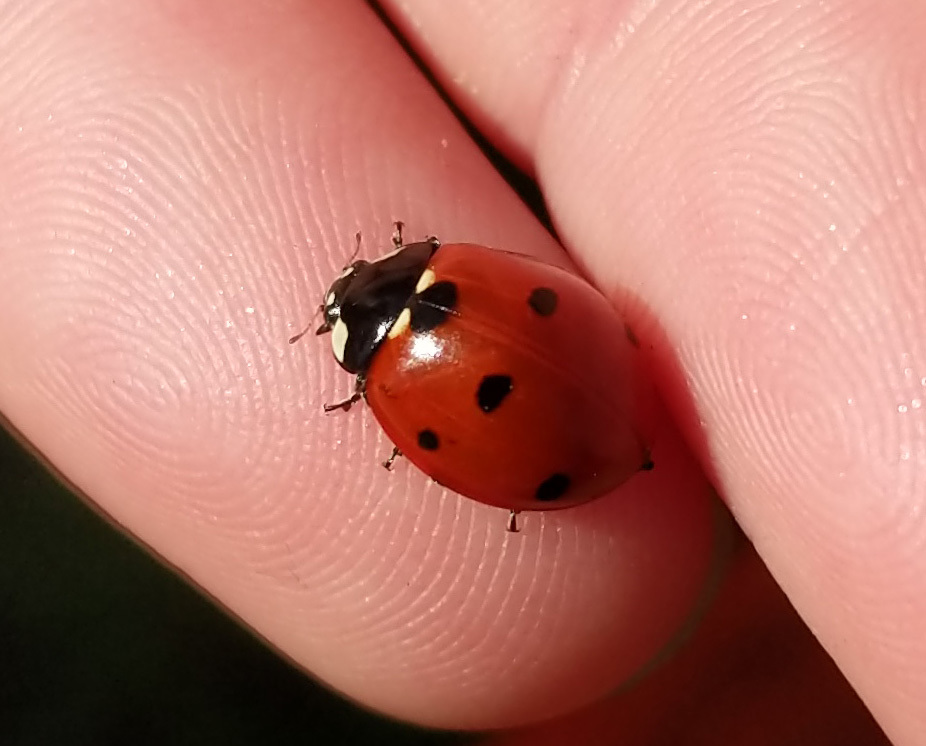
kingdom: Animalia
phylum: Arthropoda
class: Insecta
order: Coleoptera
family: Coccinellidae
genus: Coccinella
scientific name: Coccinella septempunctata
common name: Sevenspotted lady beetle
